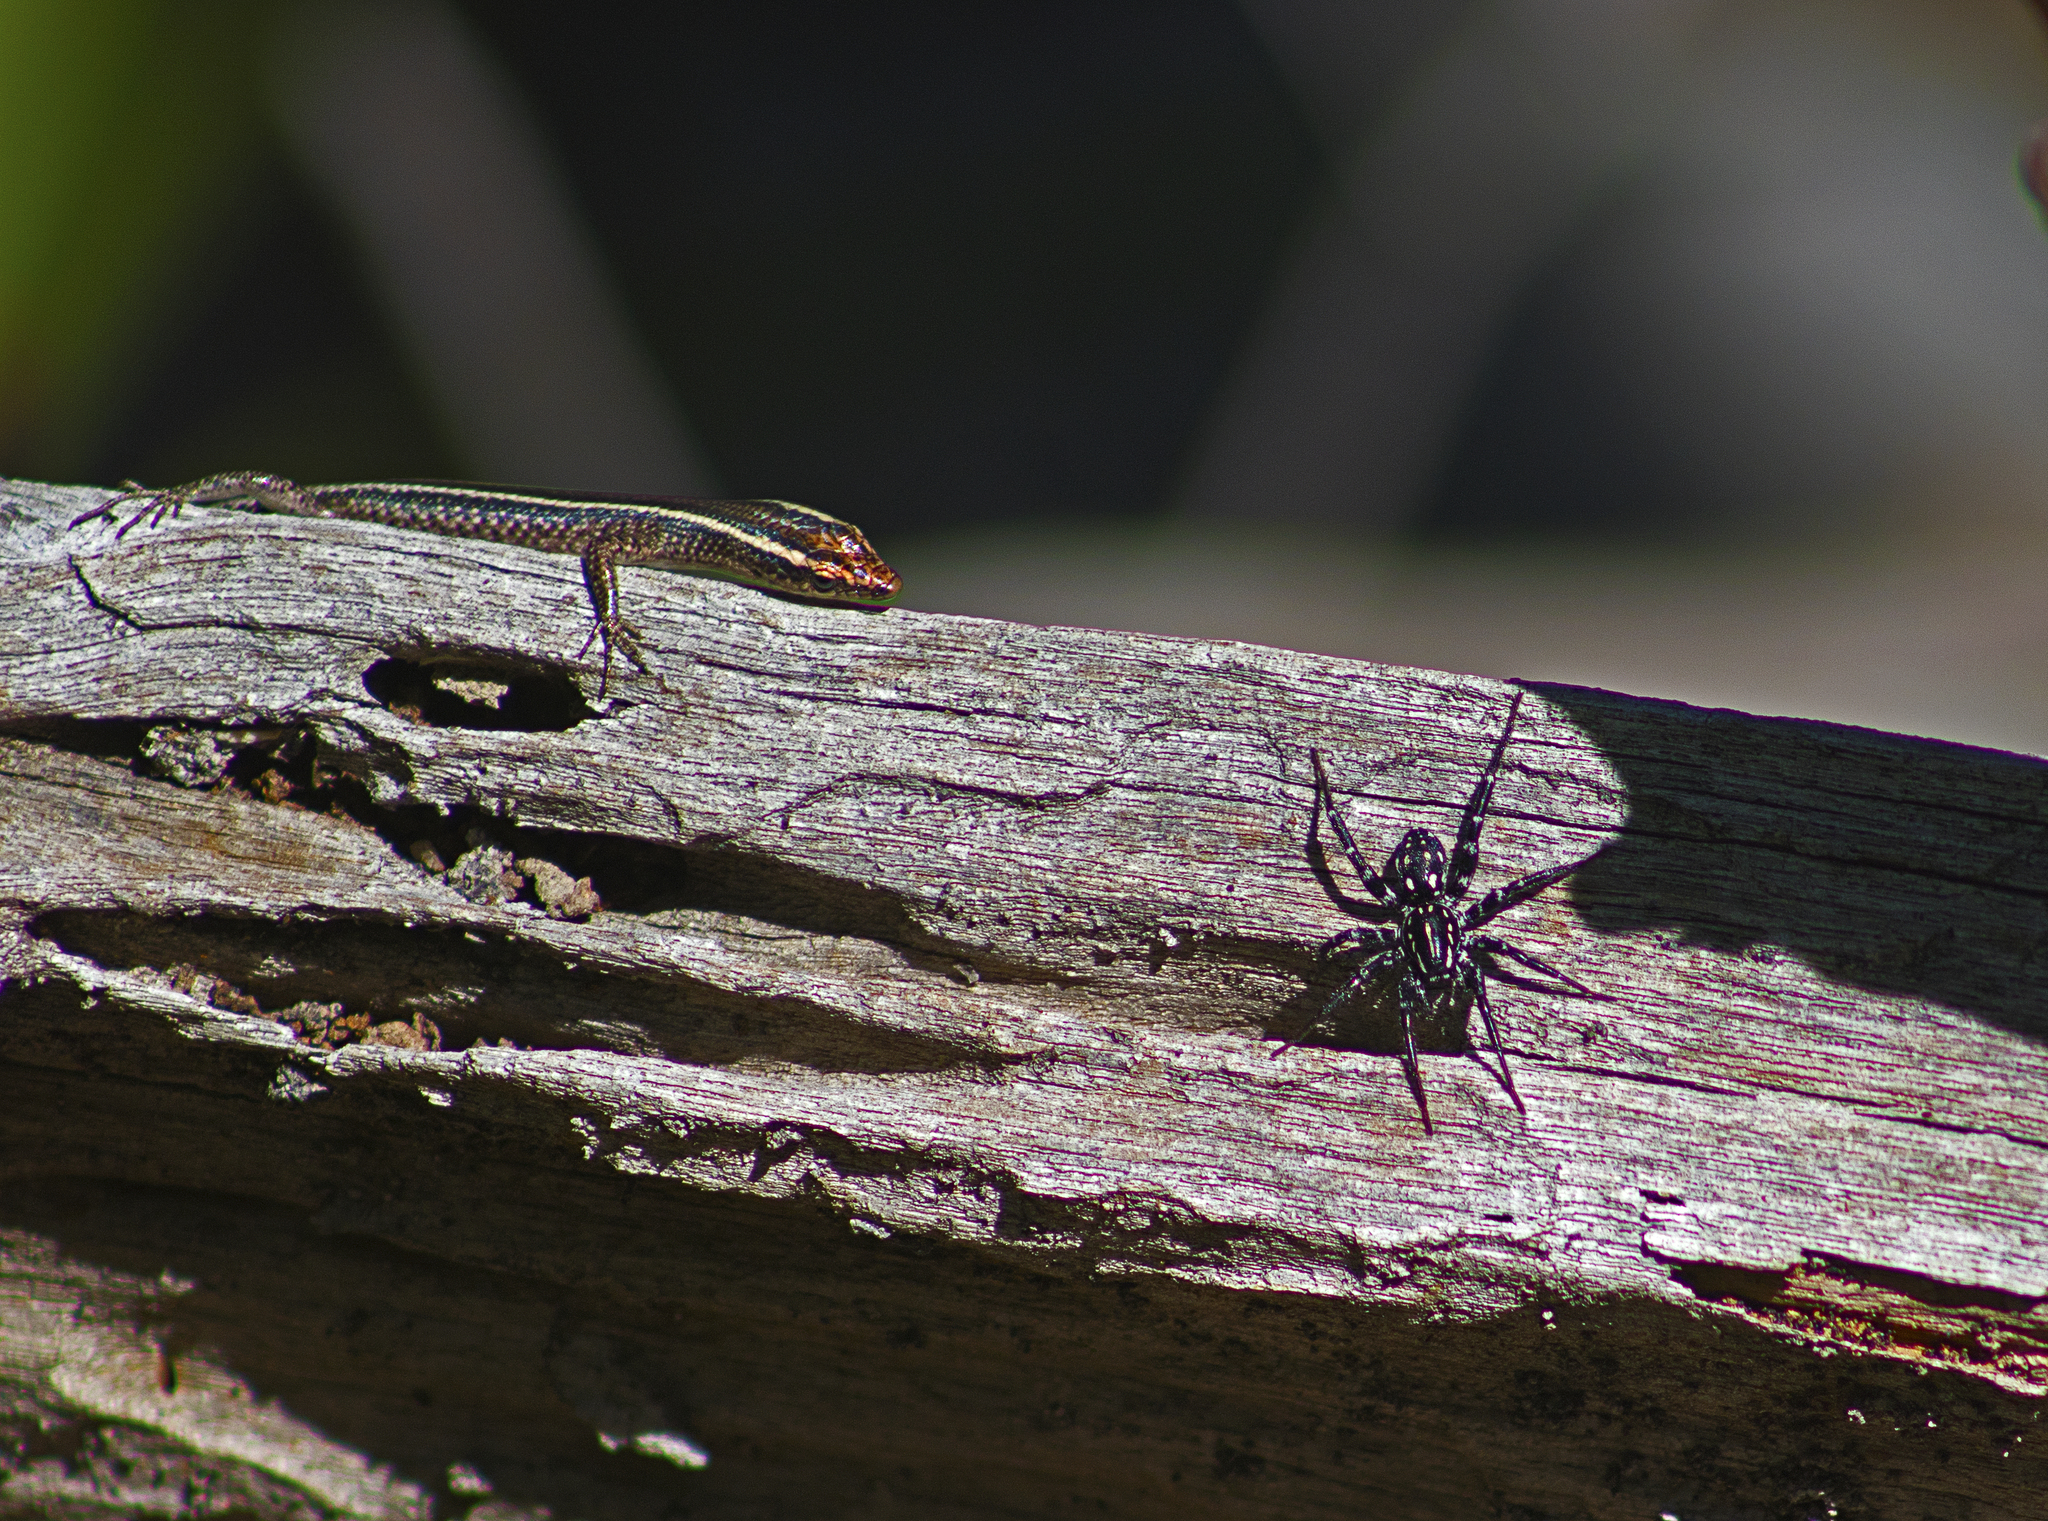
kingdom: Animalia
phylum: Arthropoda
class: Arachnida
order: Araneae
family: Corinnidae
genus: Nyssus
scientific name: Nyssus albopunctatus
